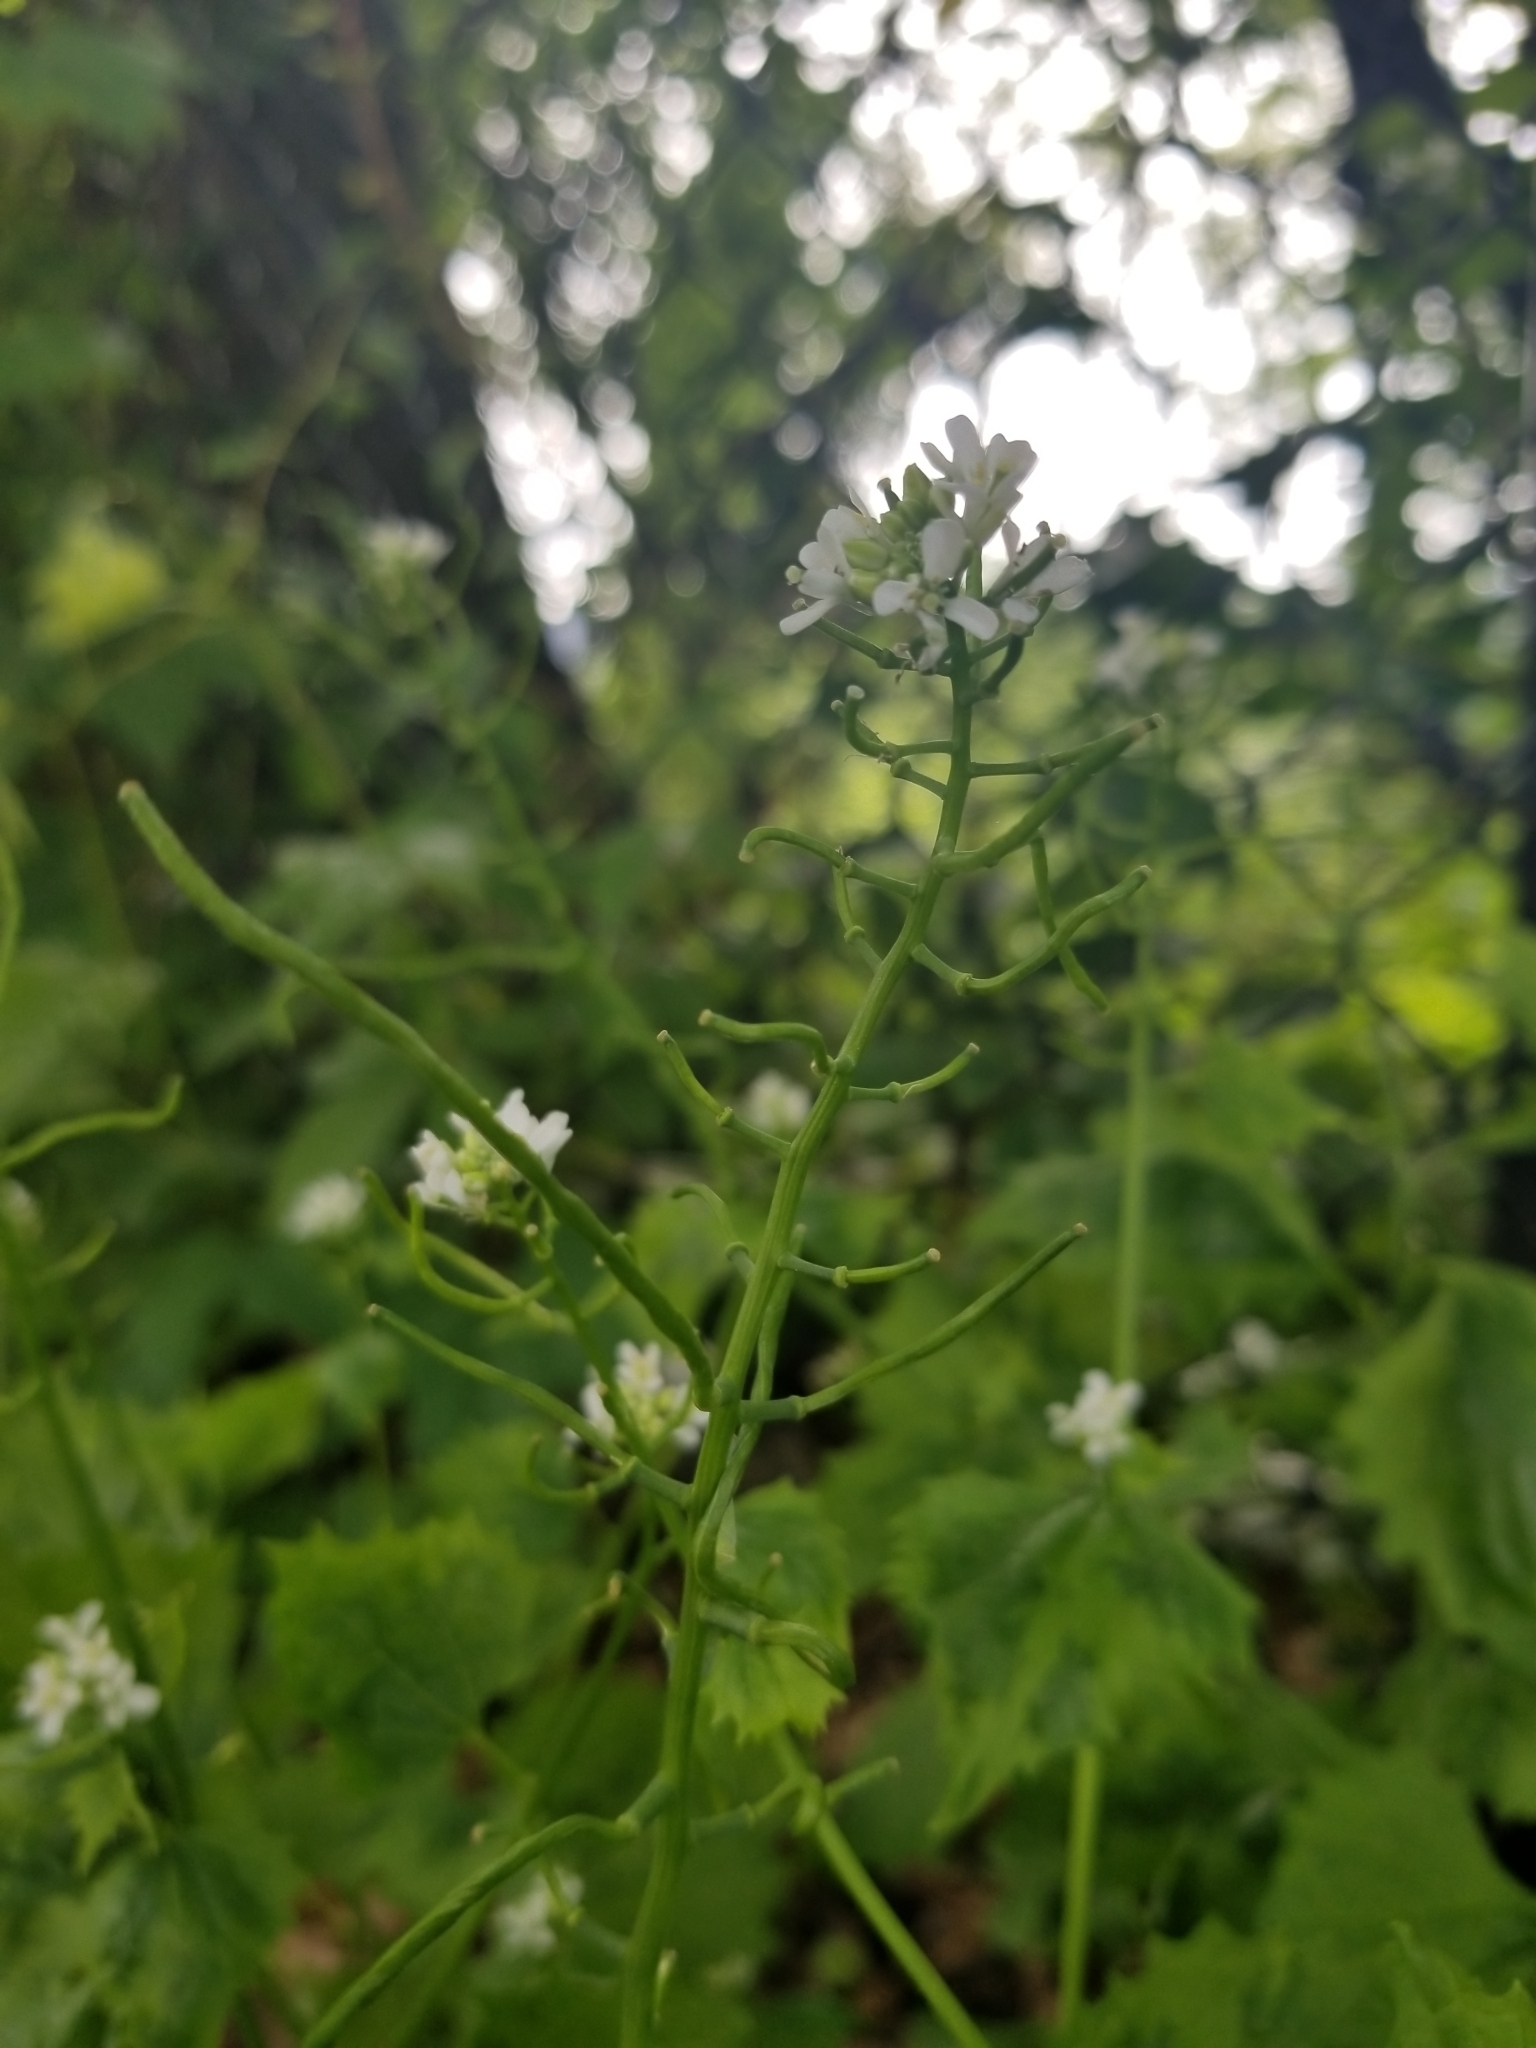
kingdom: Plantae
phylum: Tracheophyta
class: Magnoliopsida
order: Brassicales
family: Brassicaceae
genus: Alliaria
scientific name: Alliaria petiolata
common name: Garlic mustard
